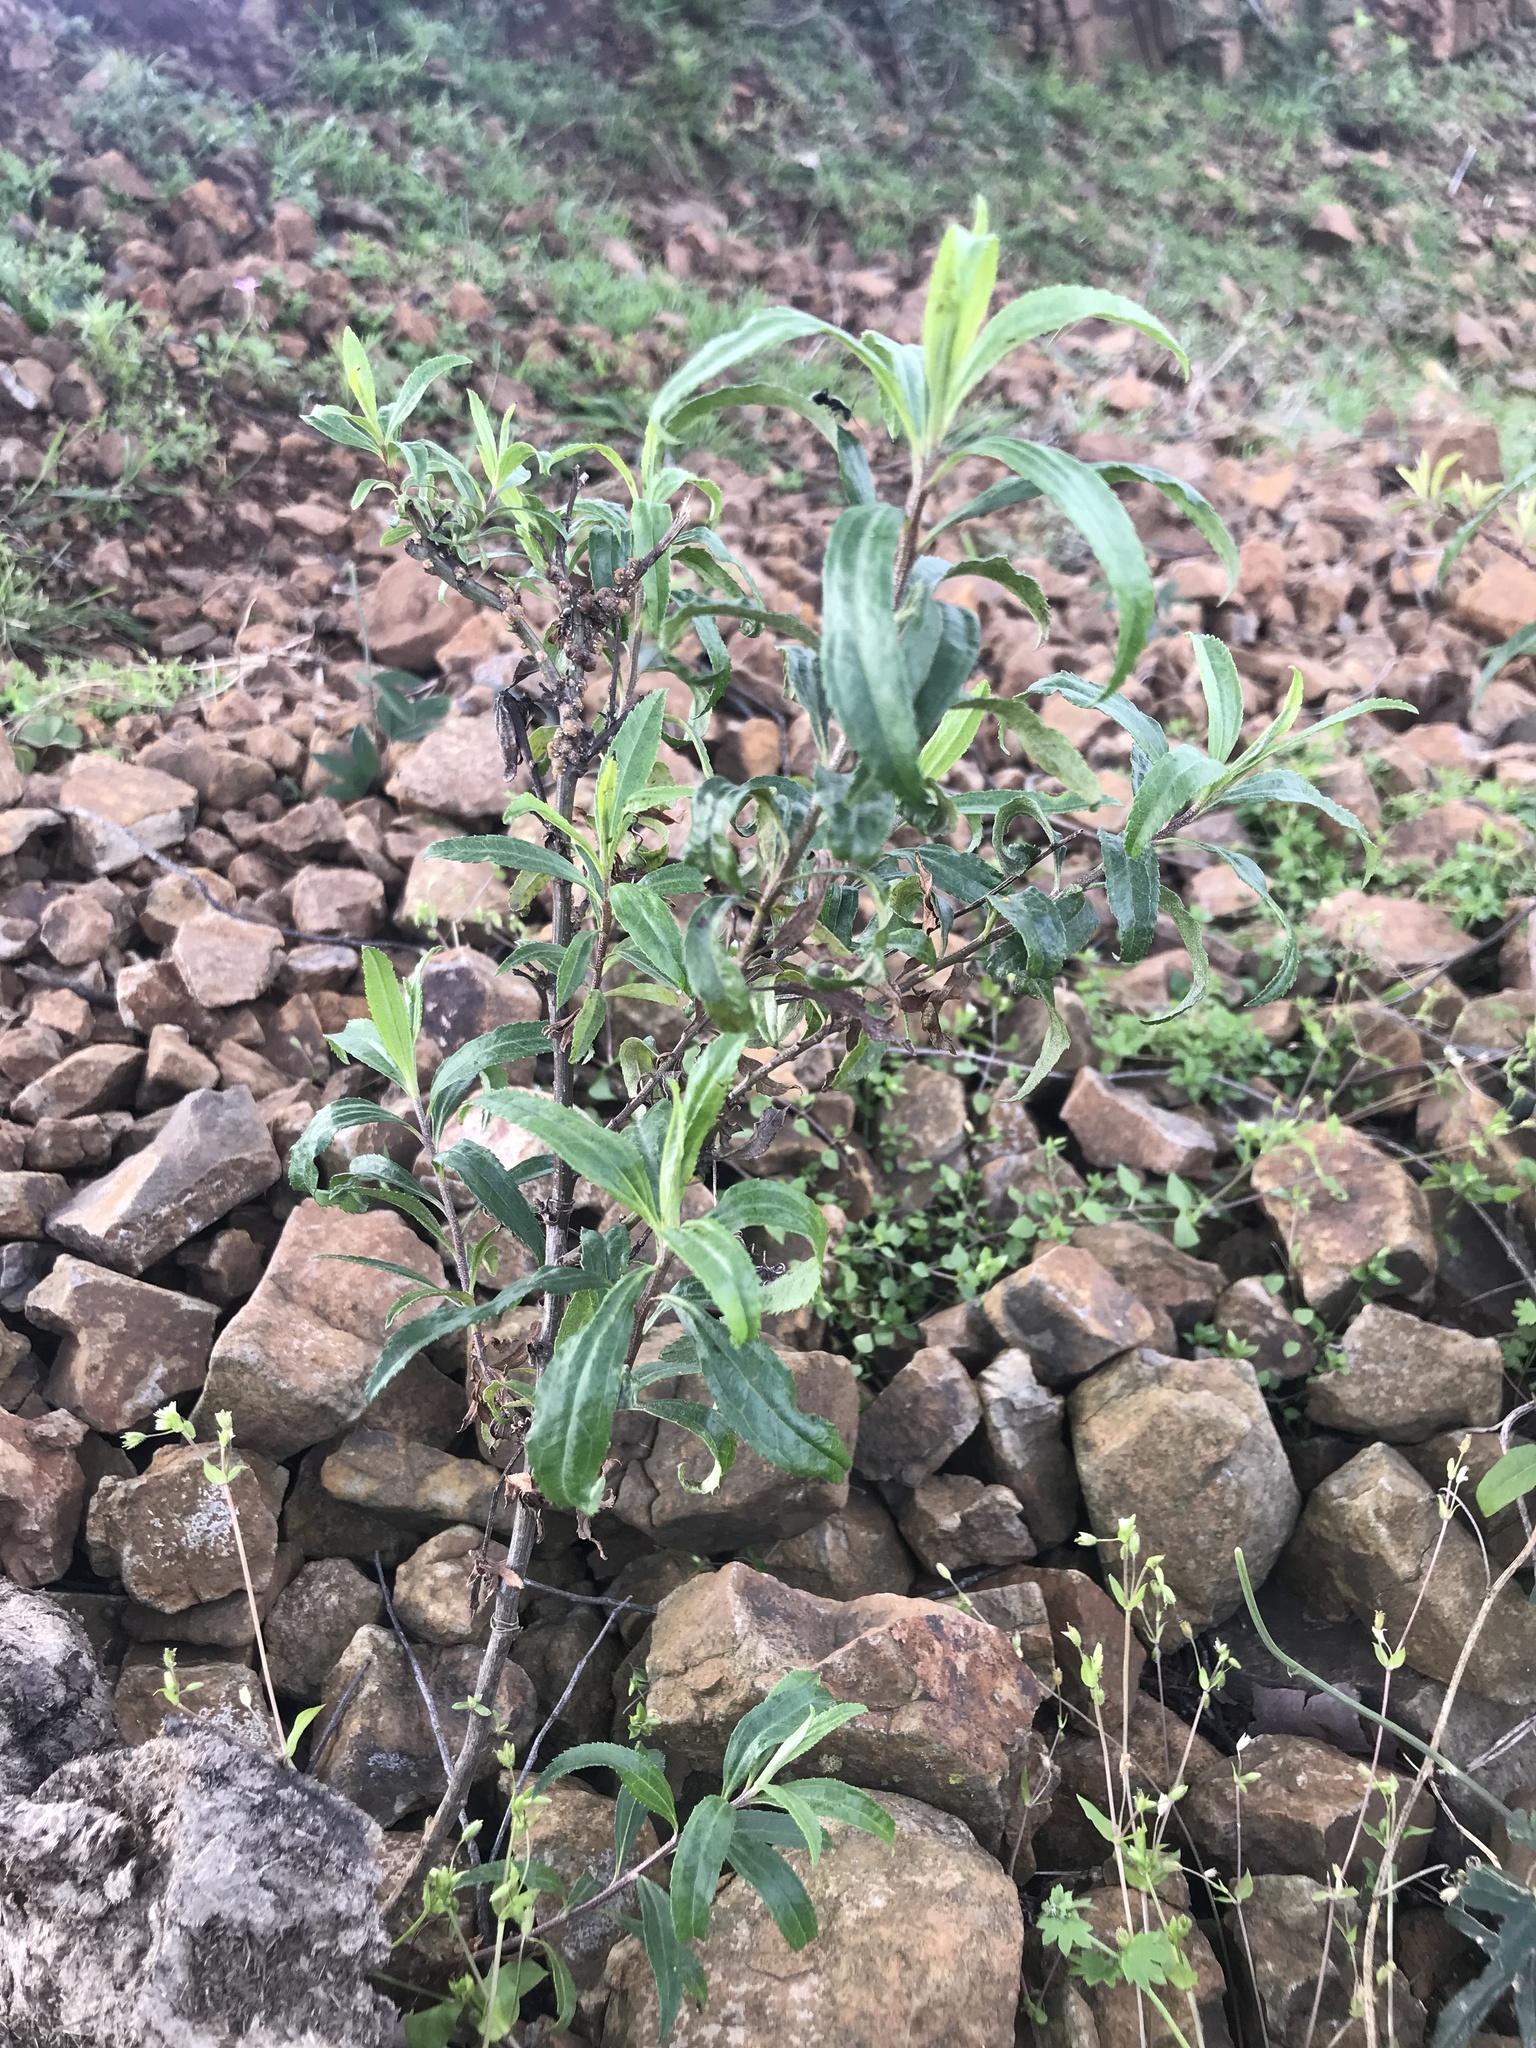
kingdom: Plantae
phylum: Tracheophyta
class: Magnoliopsida
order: Asterales
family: Asteraceae
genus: Baccharis
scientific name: Baccharis punctulata
